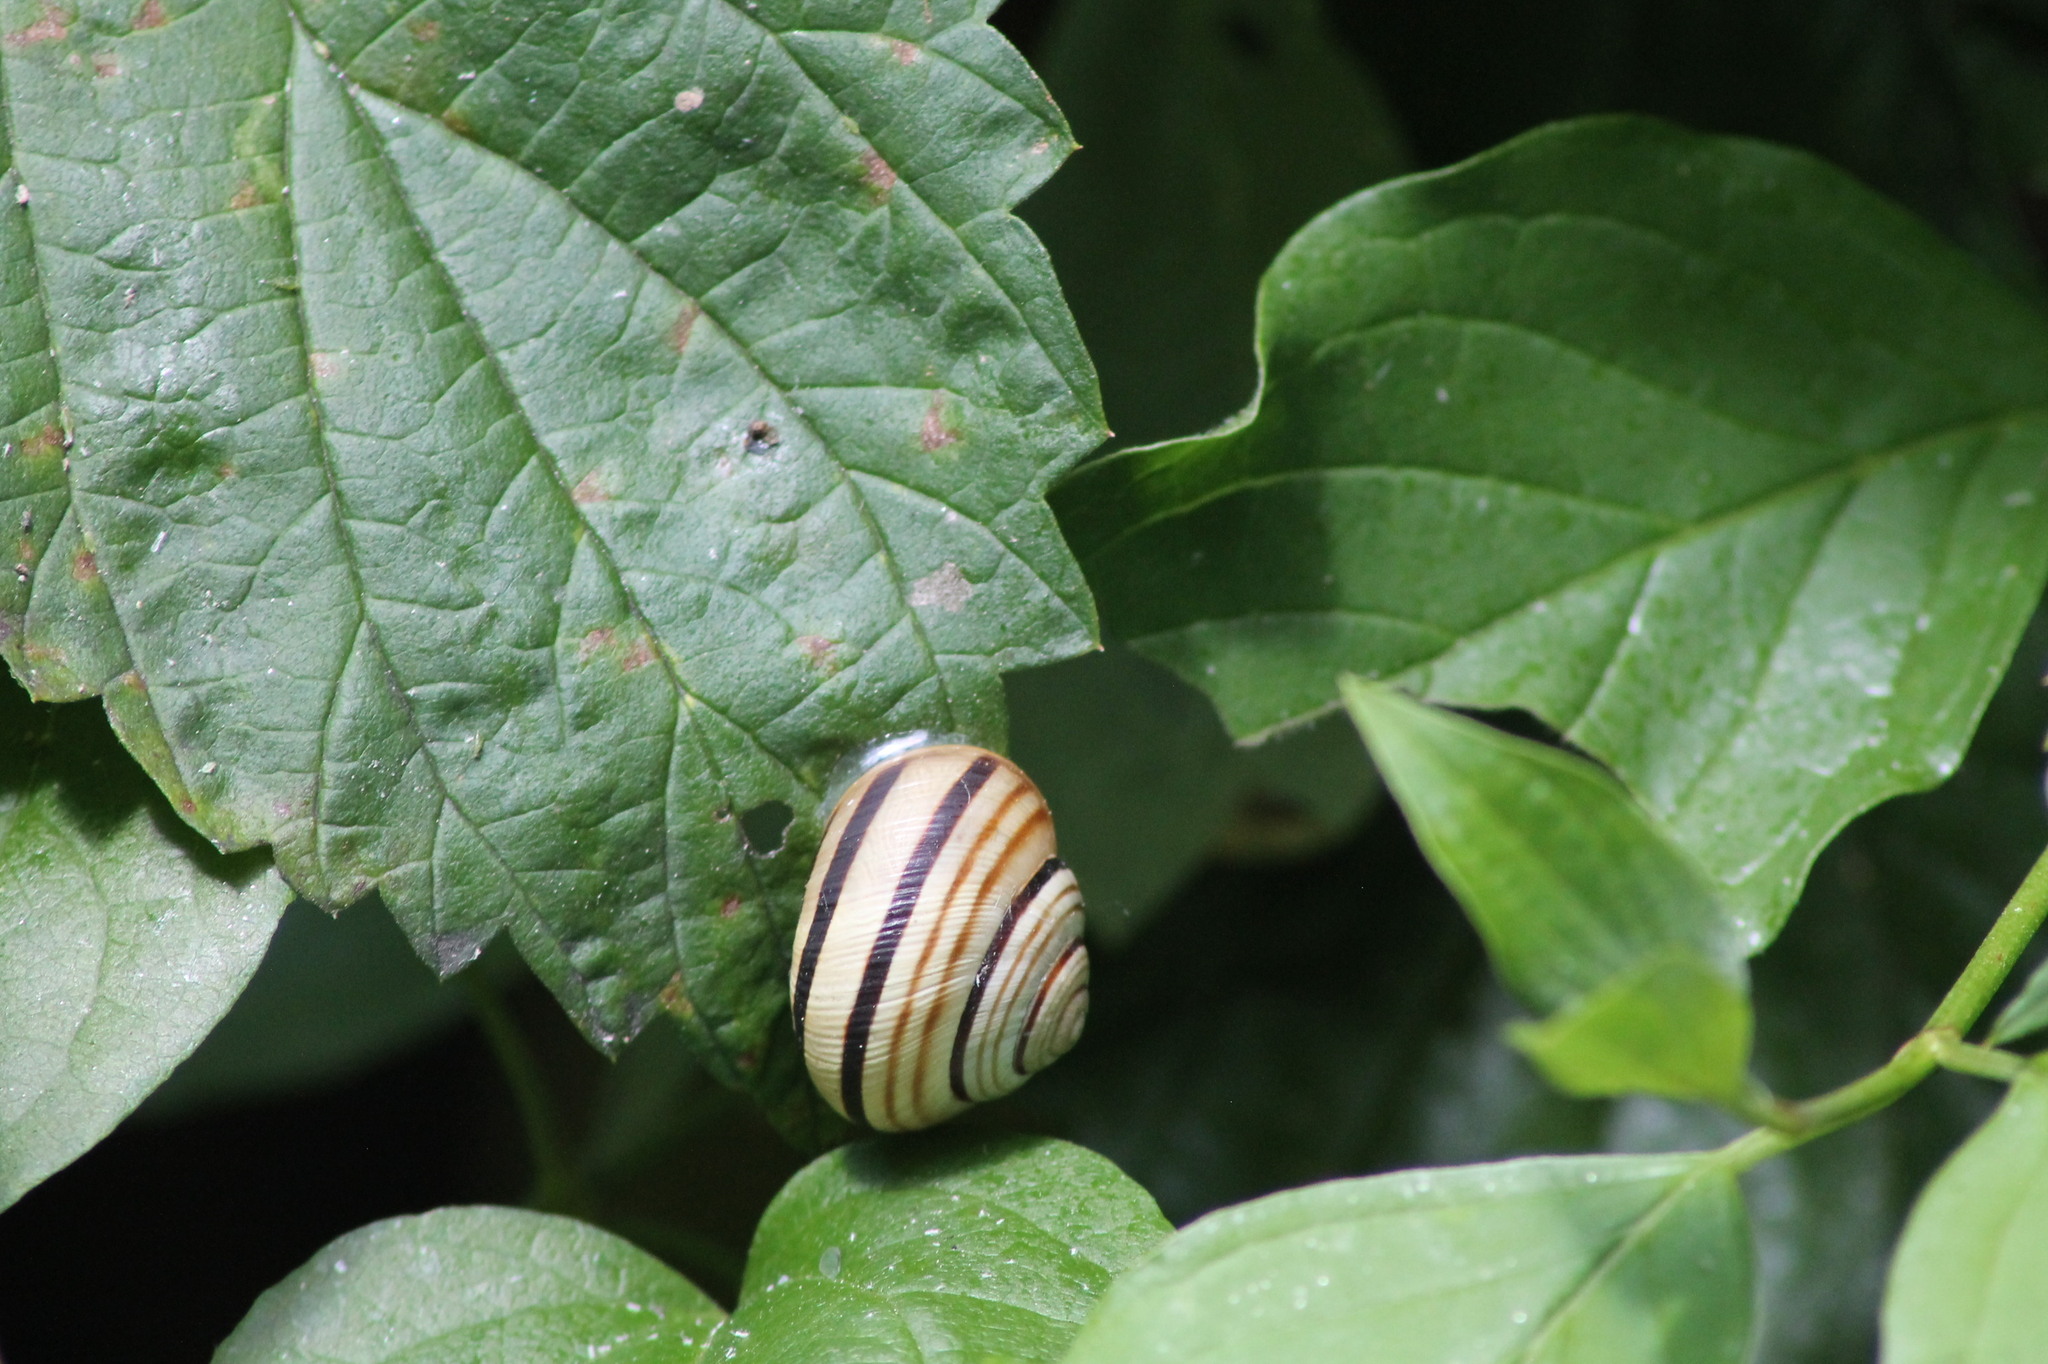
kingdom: Animalia
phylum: Mollusca
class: Gastropoda
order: Stylommatophora
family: Helicidae
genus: Caucasotachea
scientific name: Caucasotachea vindobonensis
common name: European helicid land snail
